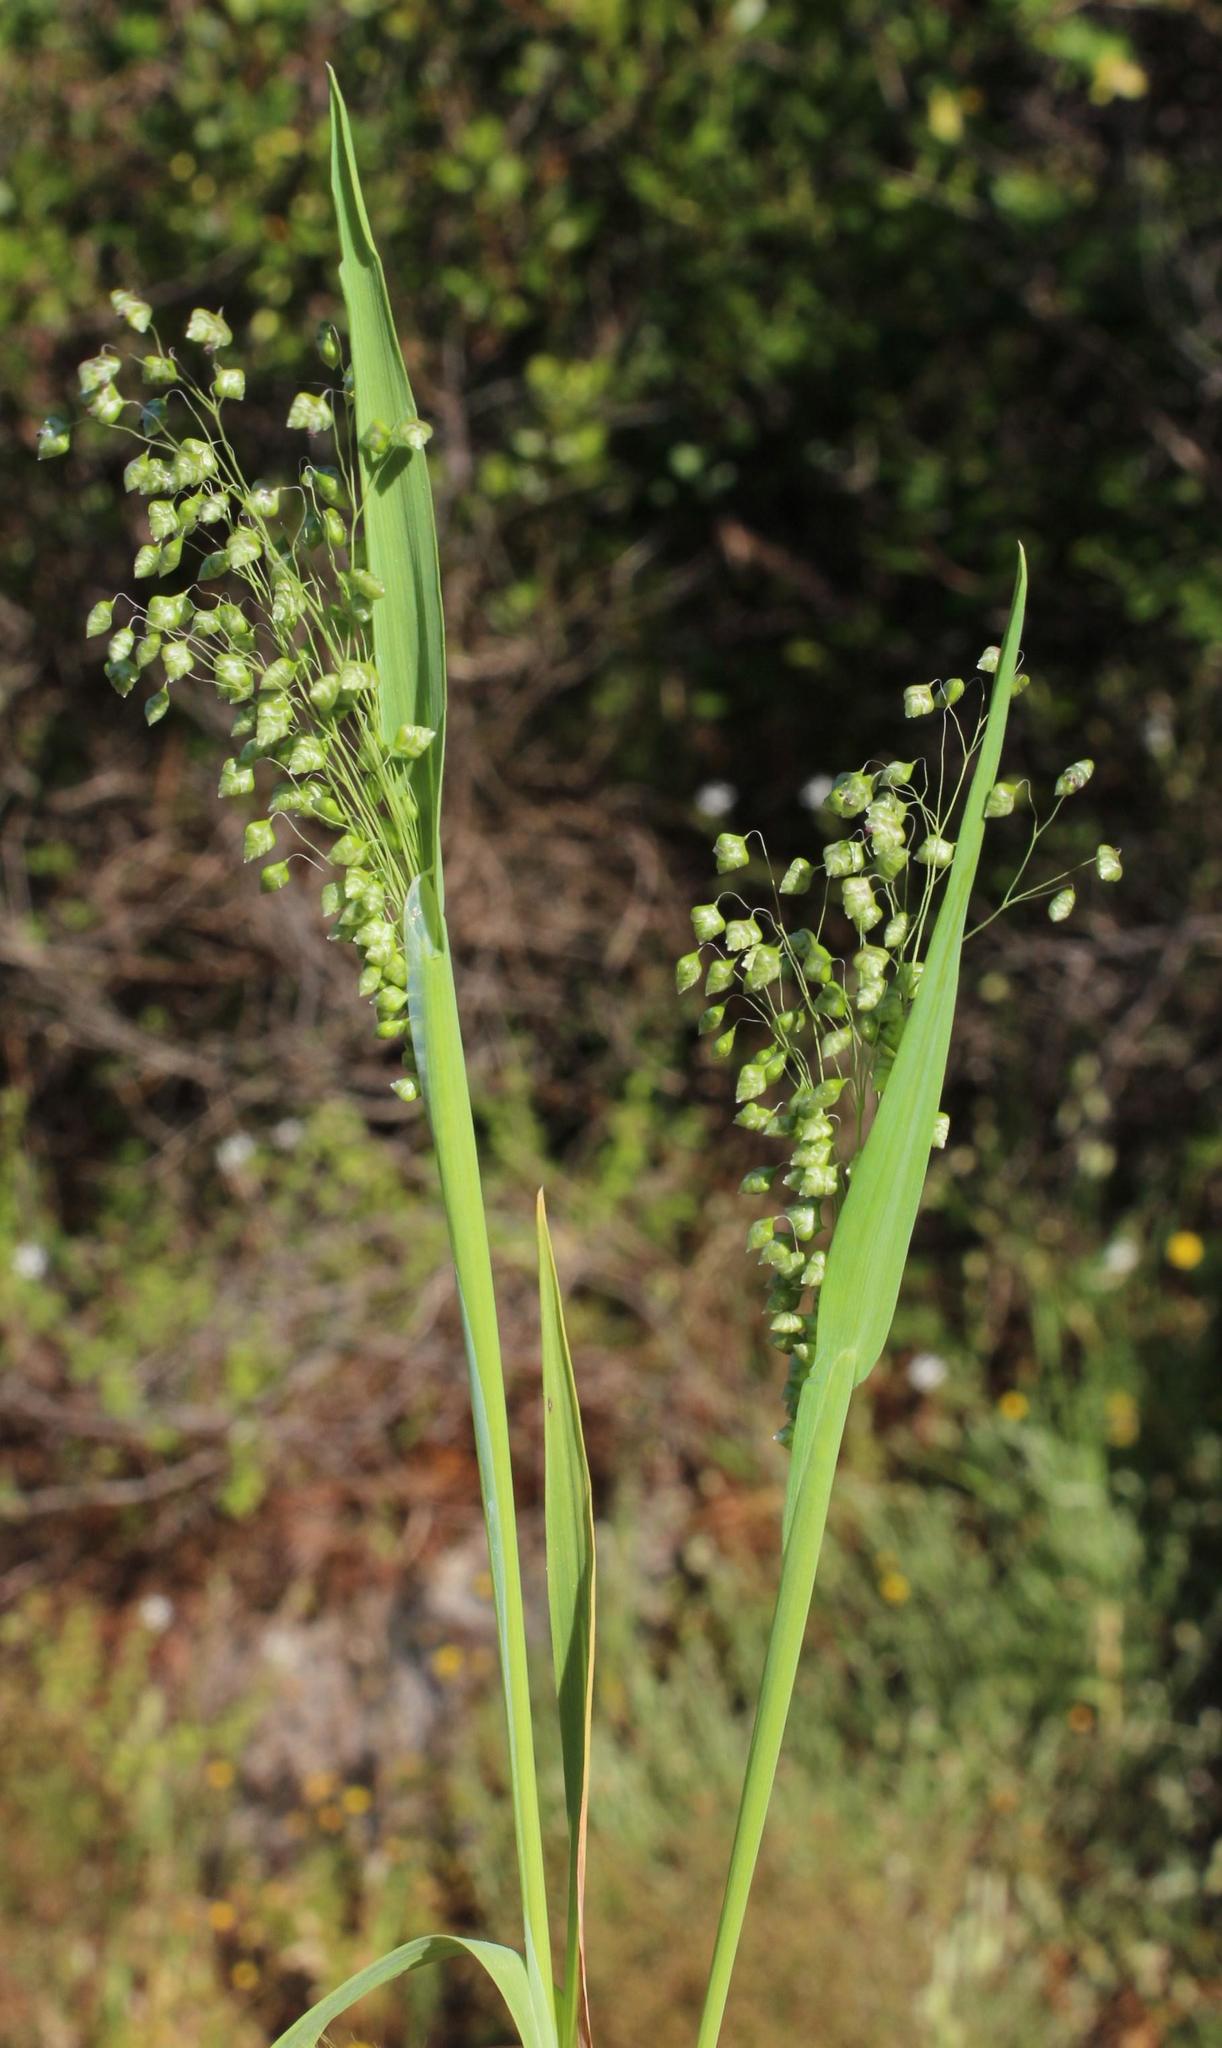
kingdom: Plantae
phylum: Tracheophyta
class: Liliopsida
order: Poales
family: Poaceae
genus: Briza
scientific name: Briza minor
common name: Lesser quaking-grass
